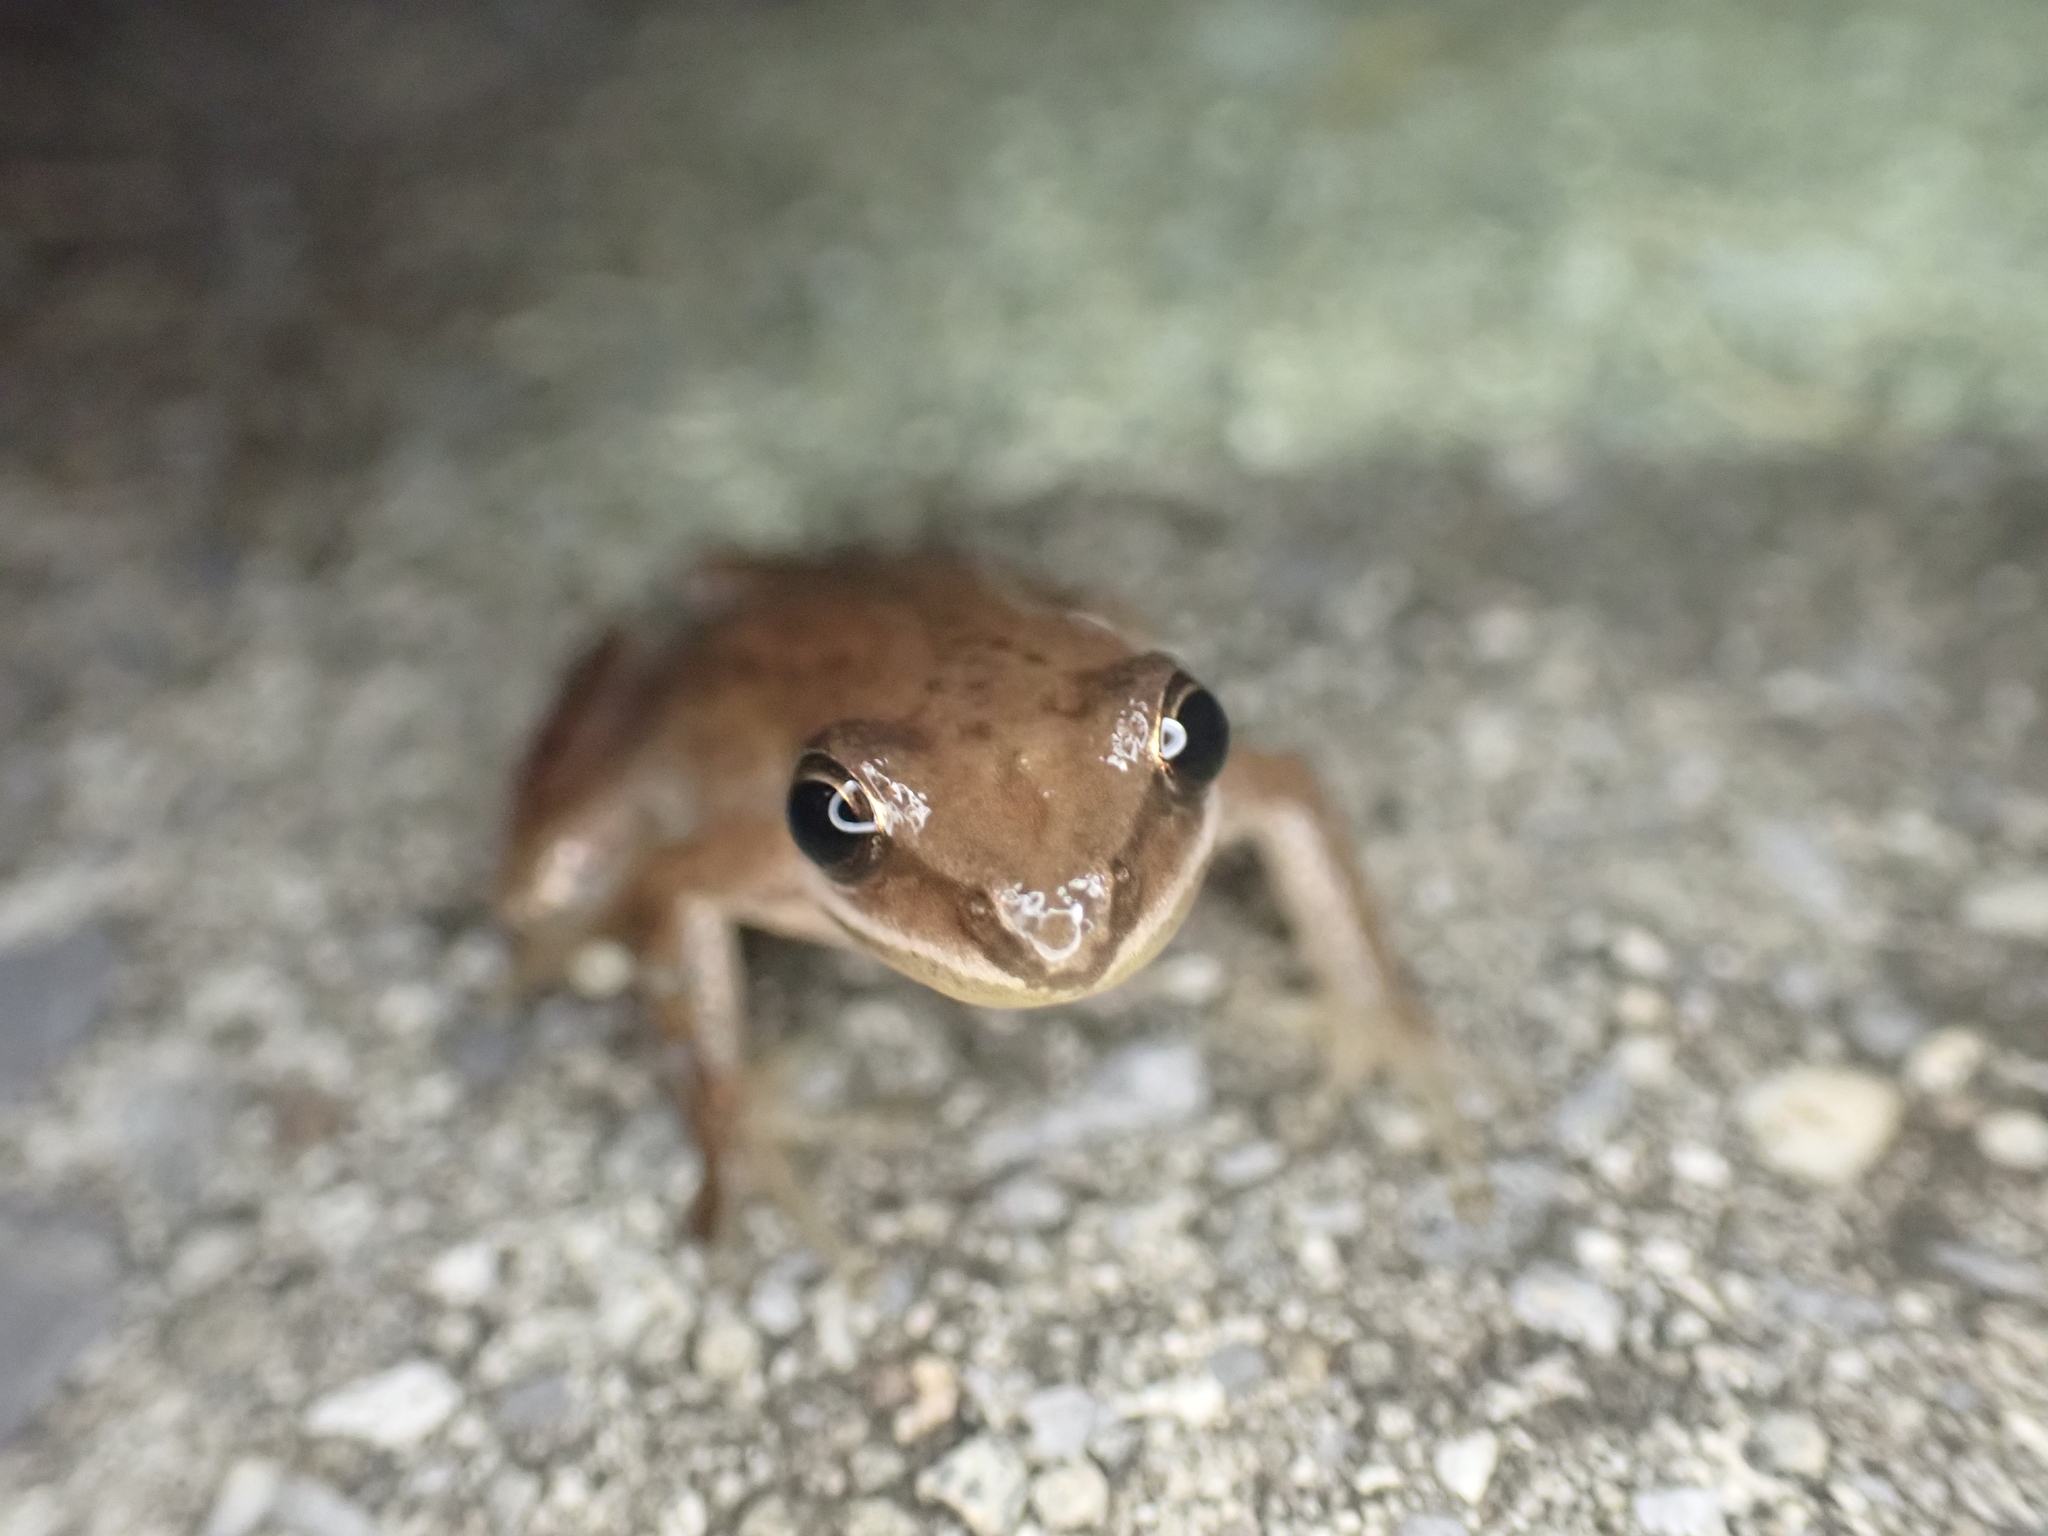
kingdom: Animalia
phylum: Chordata
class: Amphibia
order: Anura
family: Hylidae
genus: Pseudacris
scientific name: Pseudacris feriarum
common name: Upland chorus frog
